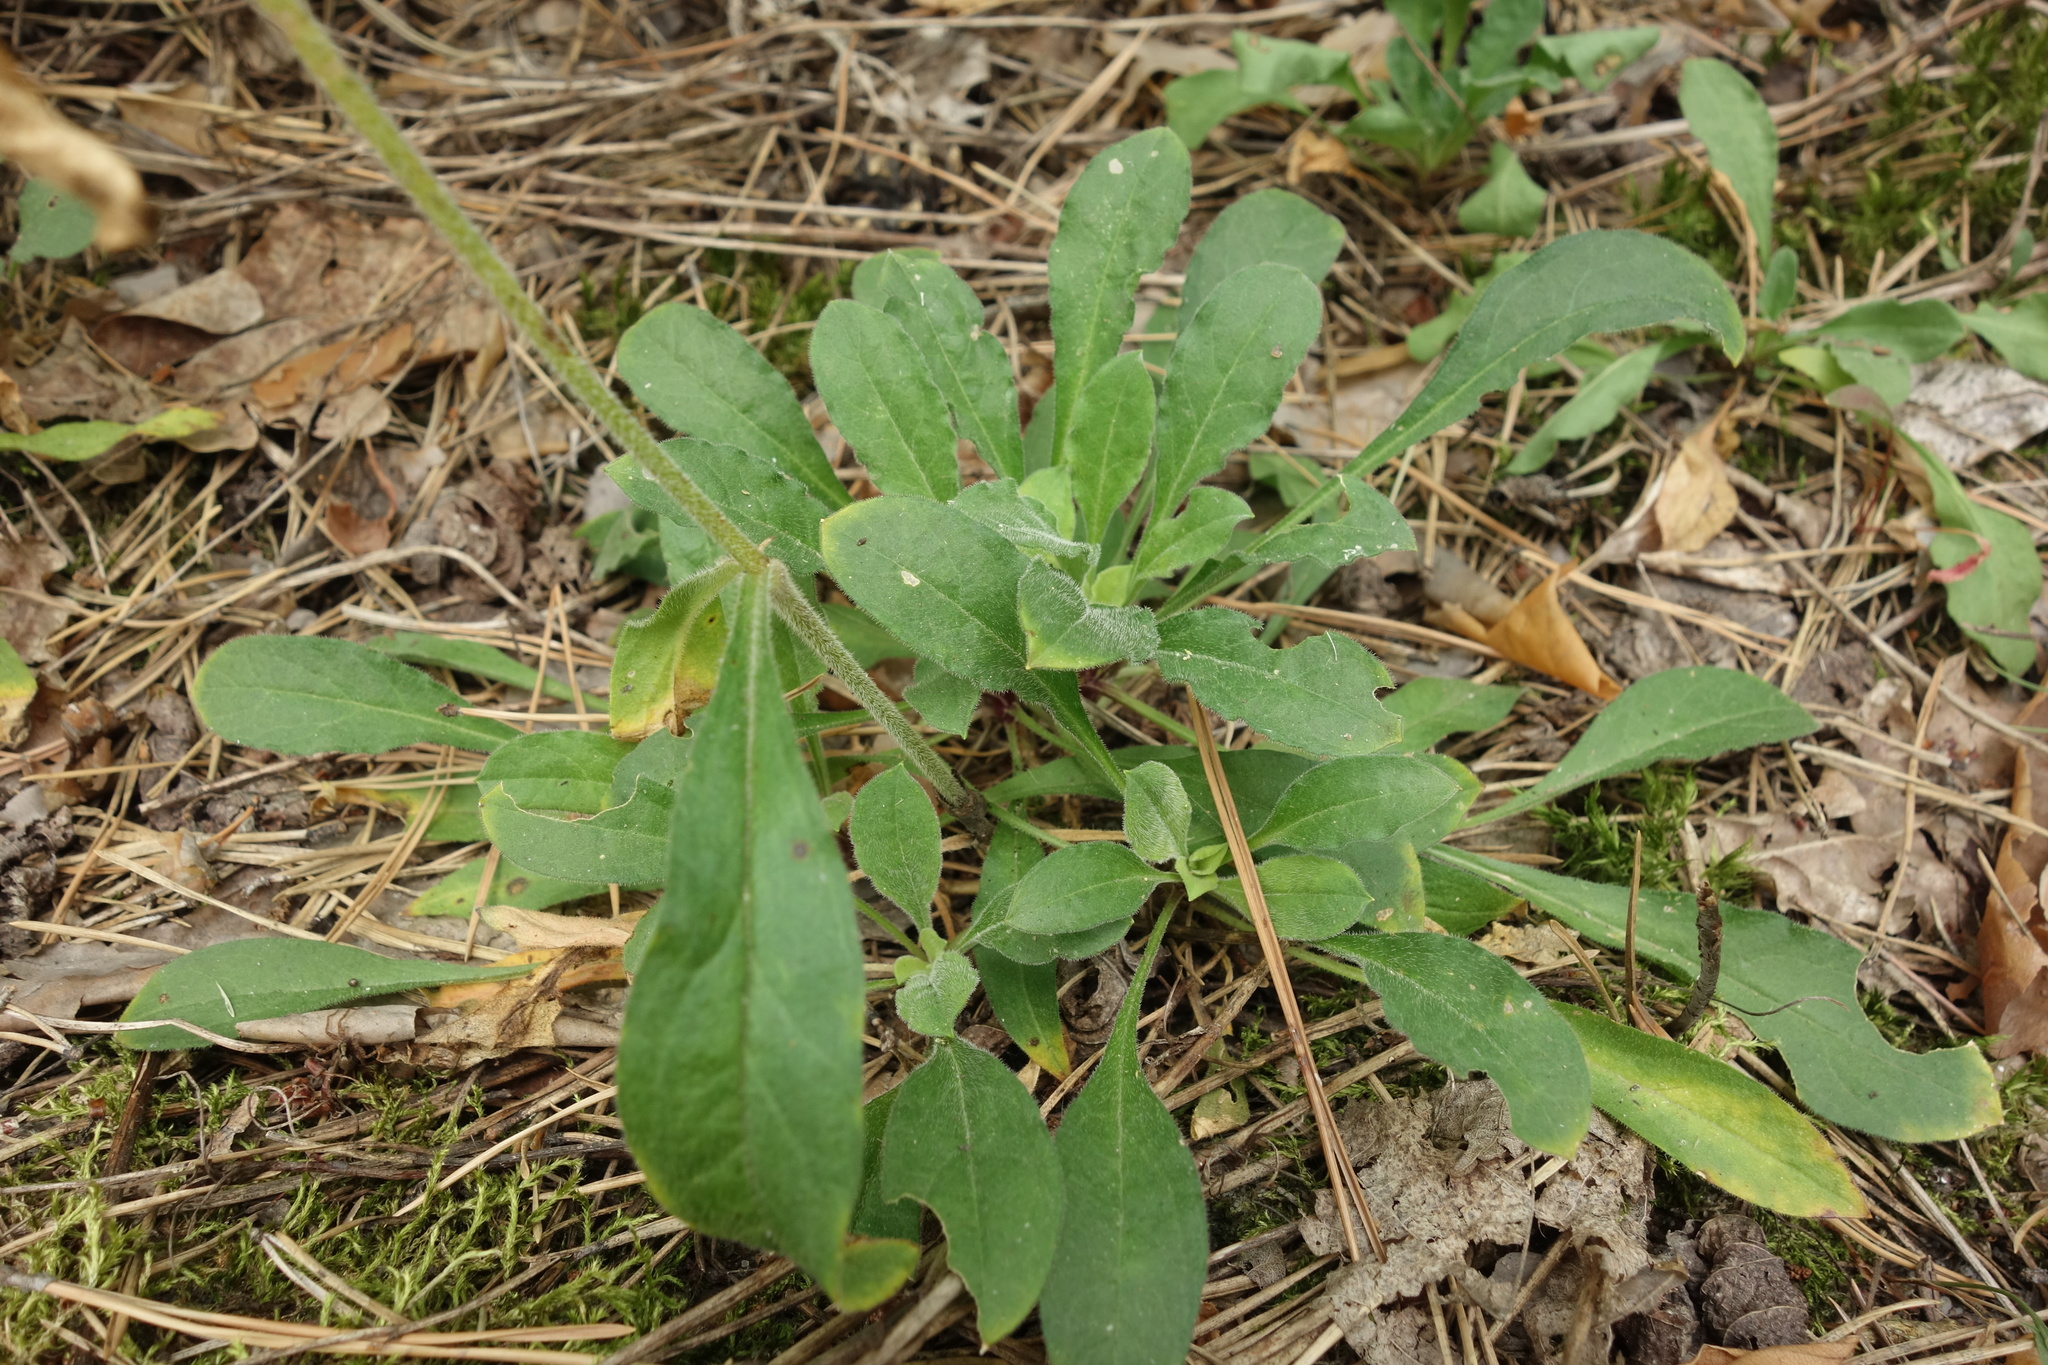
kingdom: Plantae
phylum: Tracheophyta
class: Magnoliopsida
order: Caryophyllales
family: Caryophyllaceae
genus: Silene
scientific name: Silene nutans
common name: Nottingham catchfly
